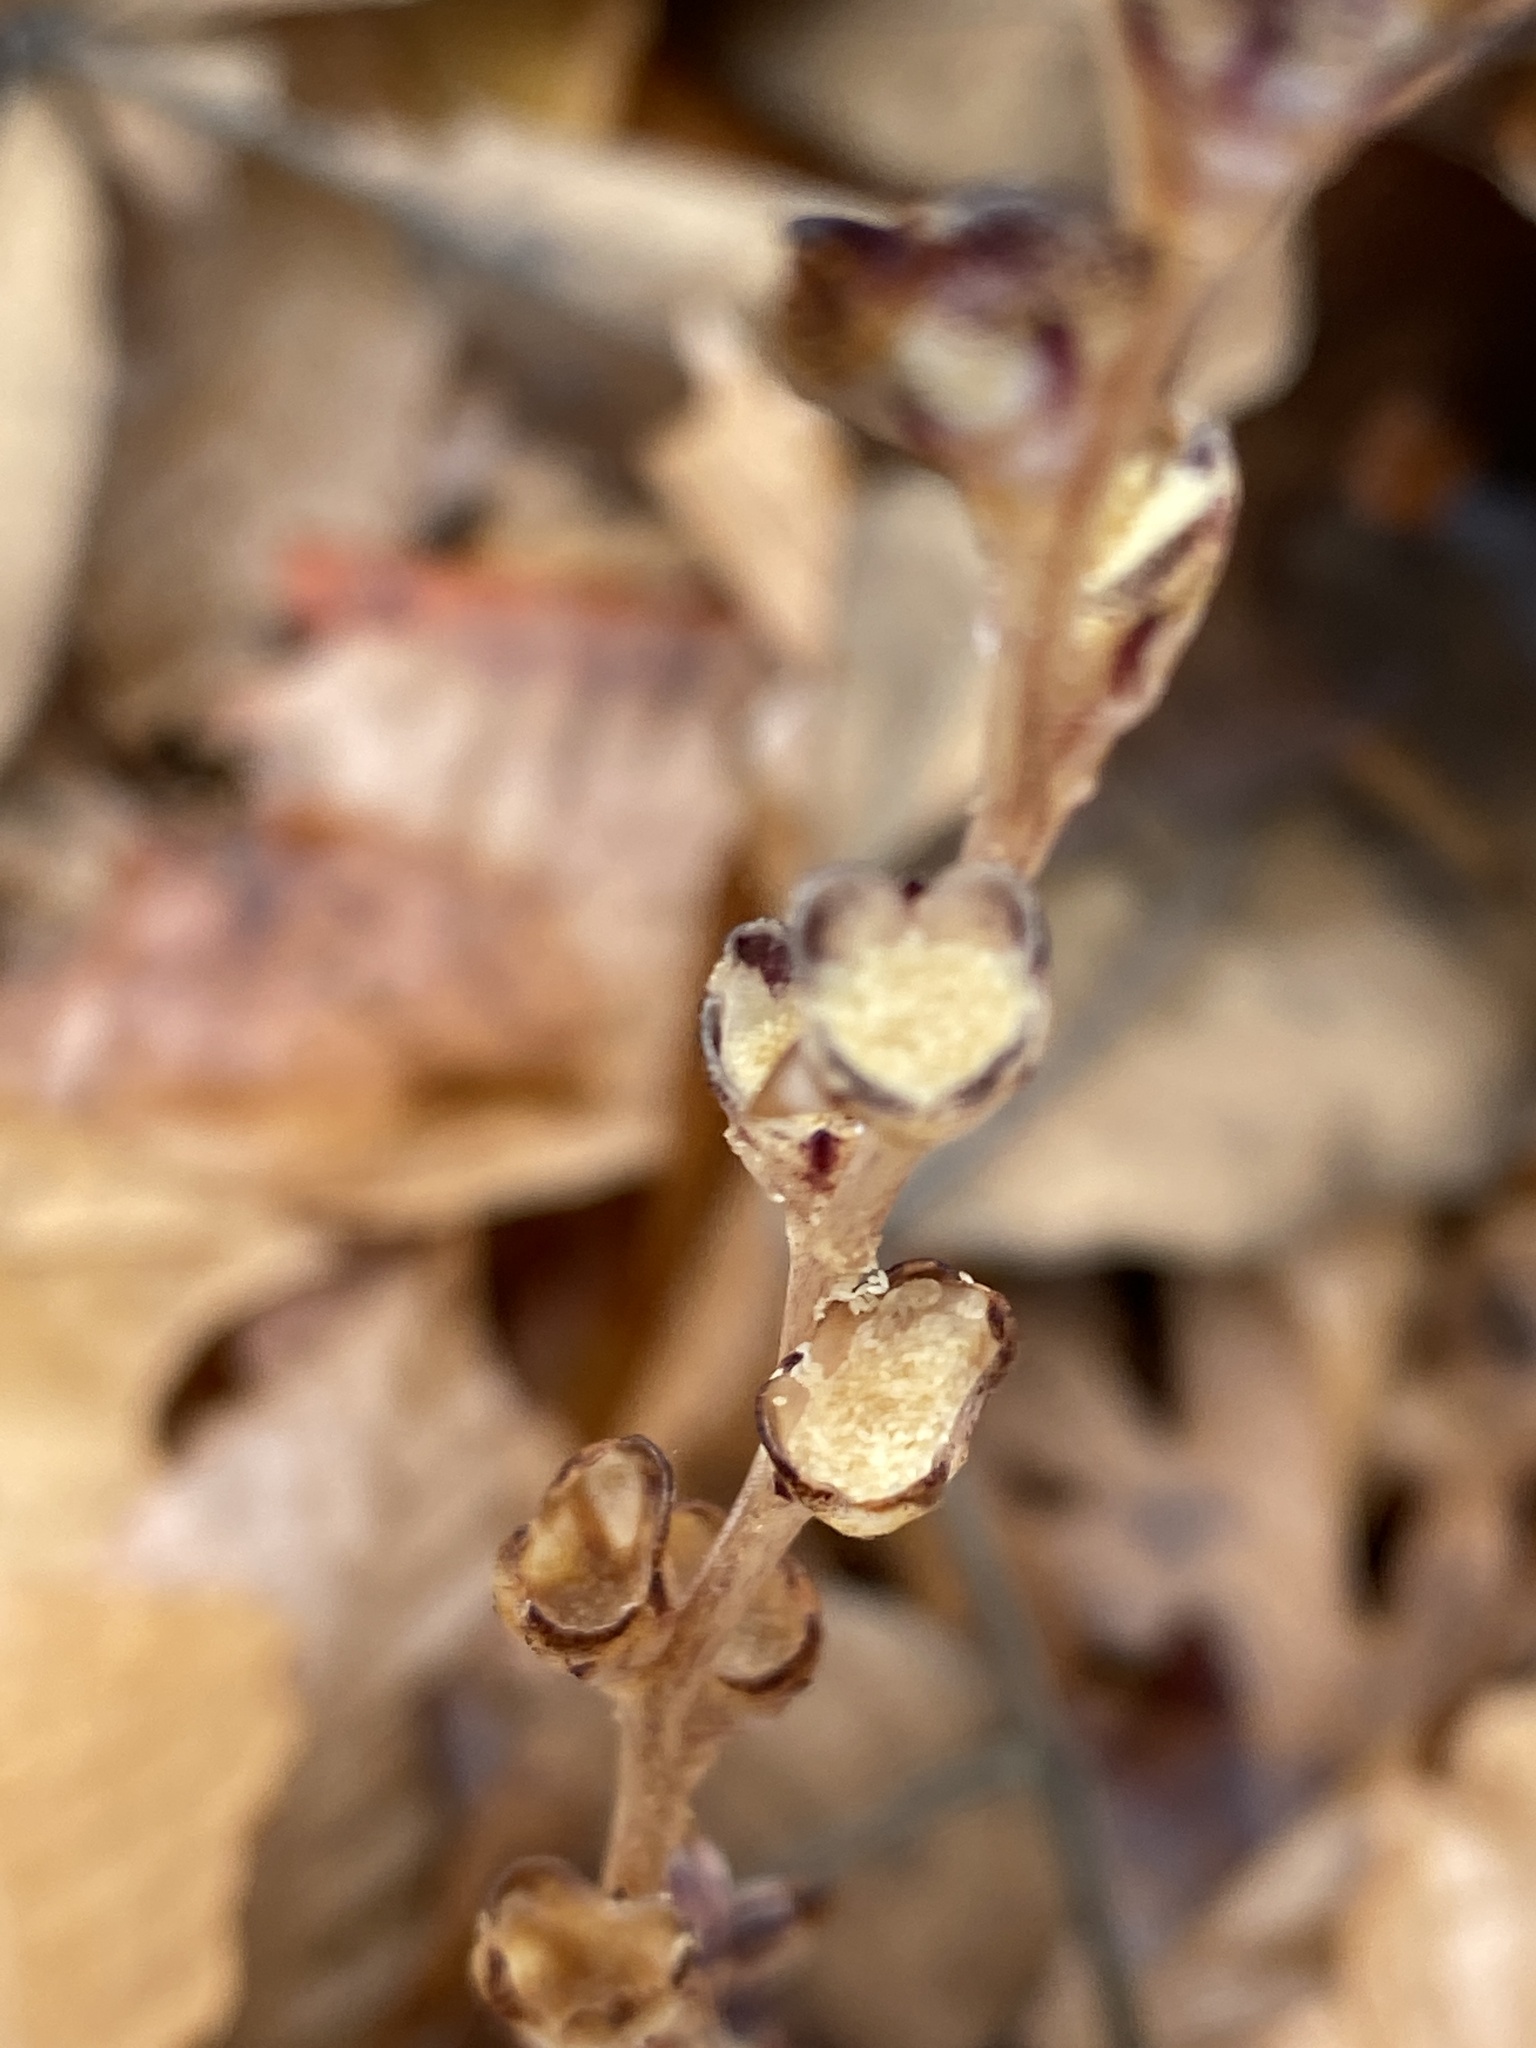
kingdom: Plantae
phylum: Tracheophyta
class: Magnoliopsida
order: Lamiales
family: Orobanchaceae
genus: Epifagus
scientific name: Epifagus virginiana
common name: Beechdrops
